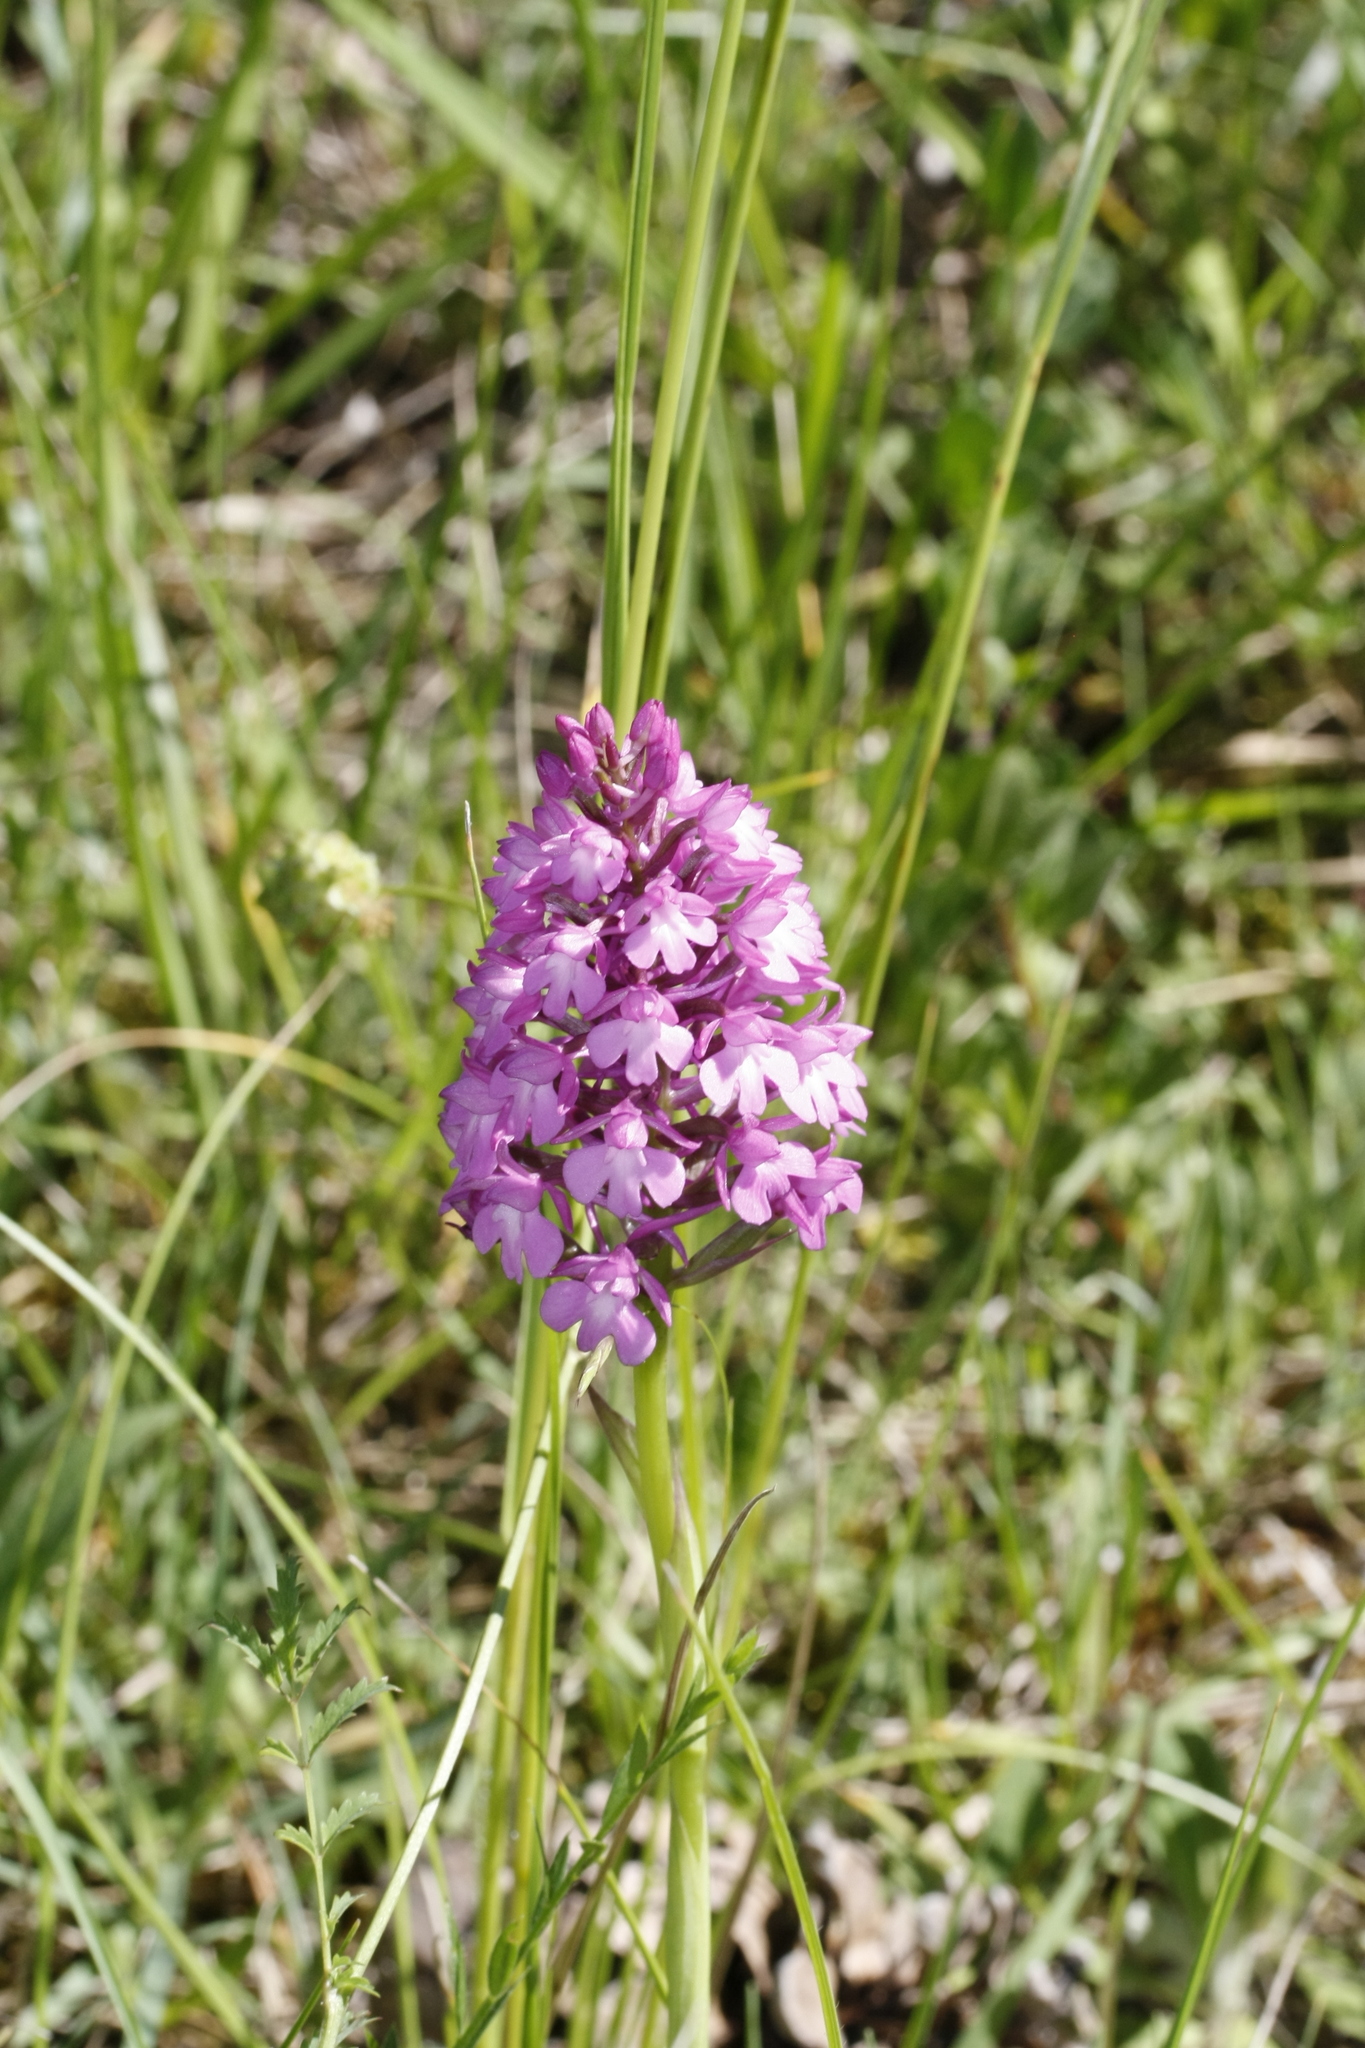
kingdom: Plantae
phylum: Tracheophyta
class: Liliopsida
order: Asparagales
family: Orchidaceae
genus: Anacamptis
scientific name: Anacamptis pyramidalis
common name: Pyramidal orchid
